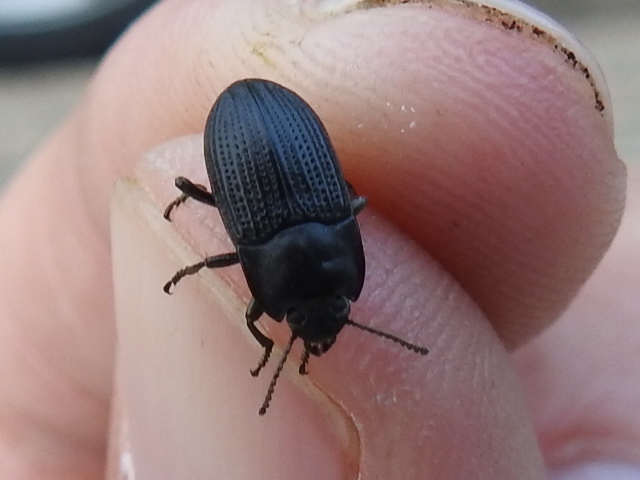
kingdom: Animalia
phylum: Arthropoda
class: Insecta
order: Coleoptera
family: Tenebrionidae
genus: Asiopus
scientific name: Asiopus
